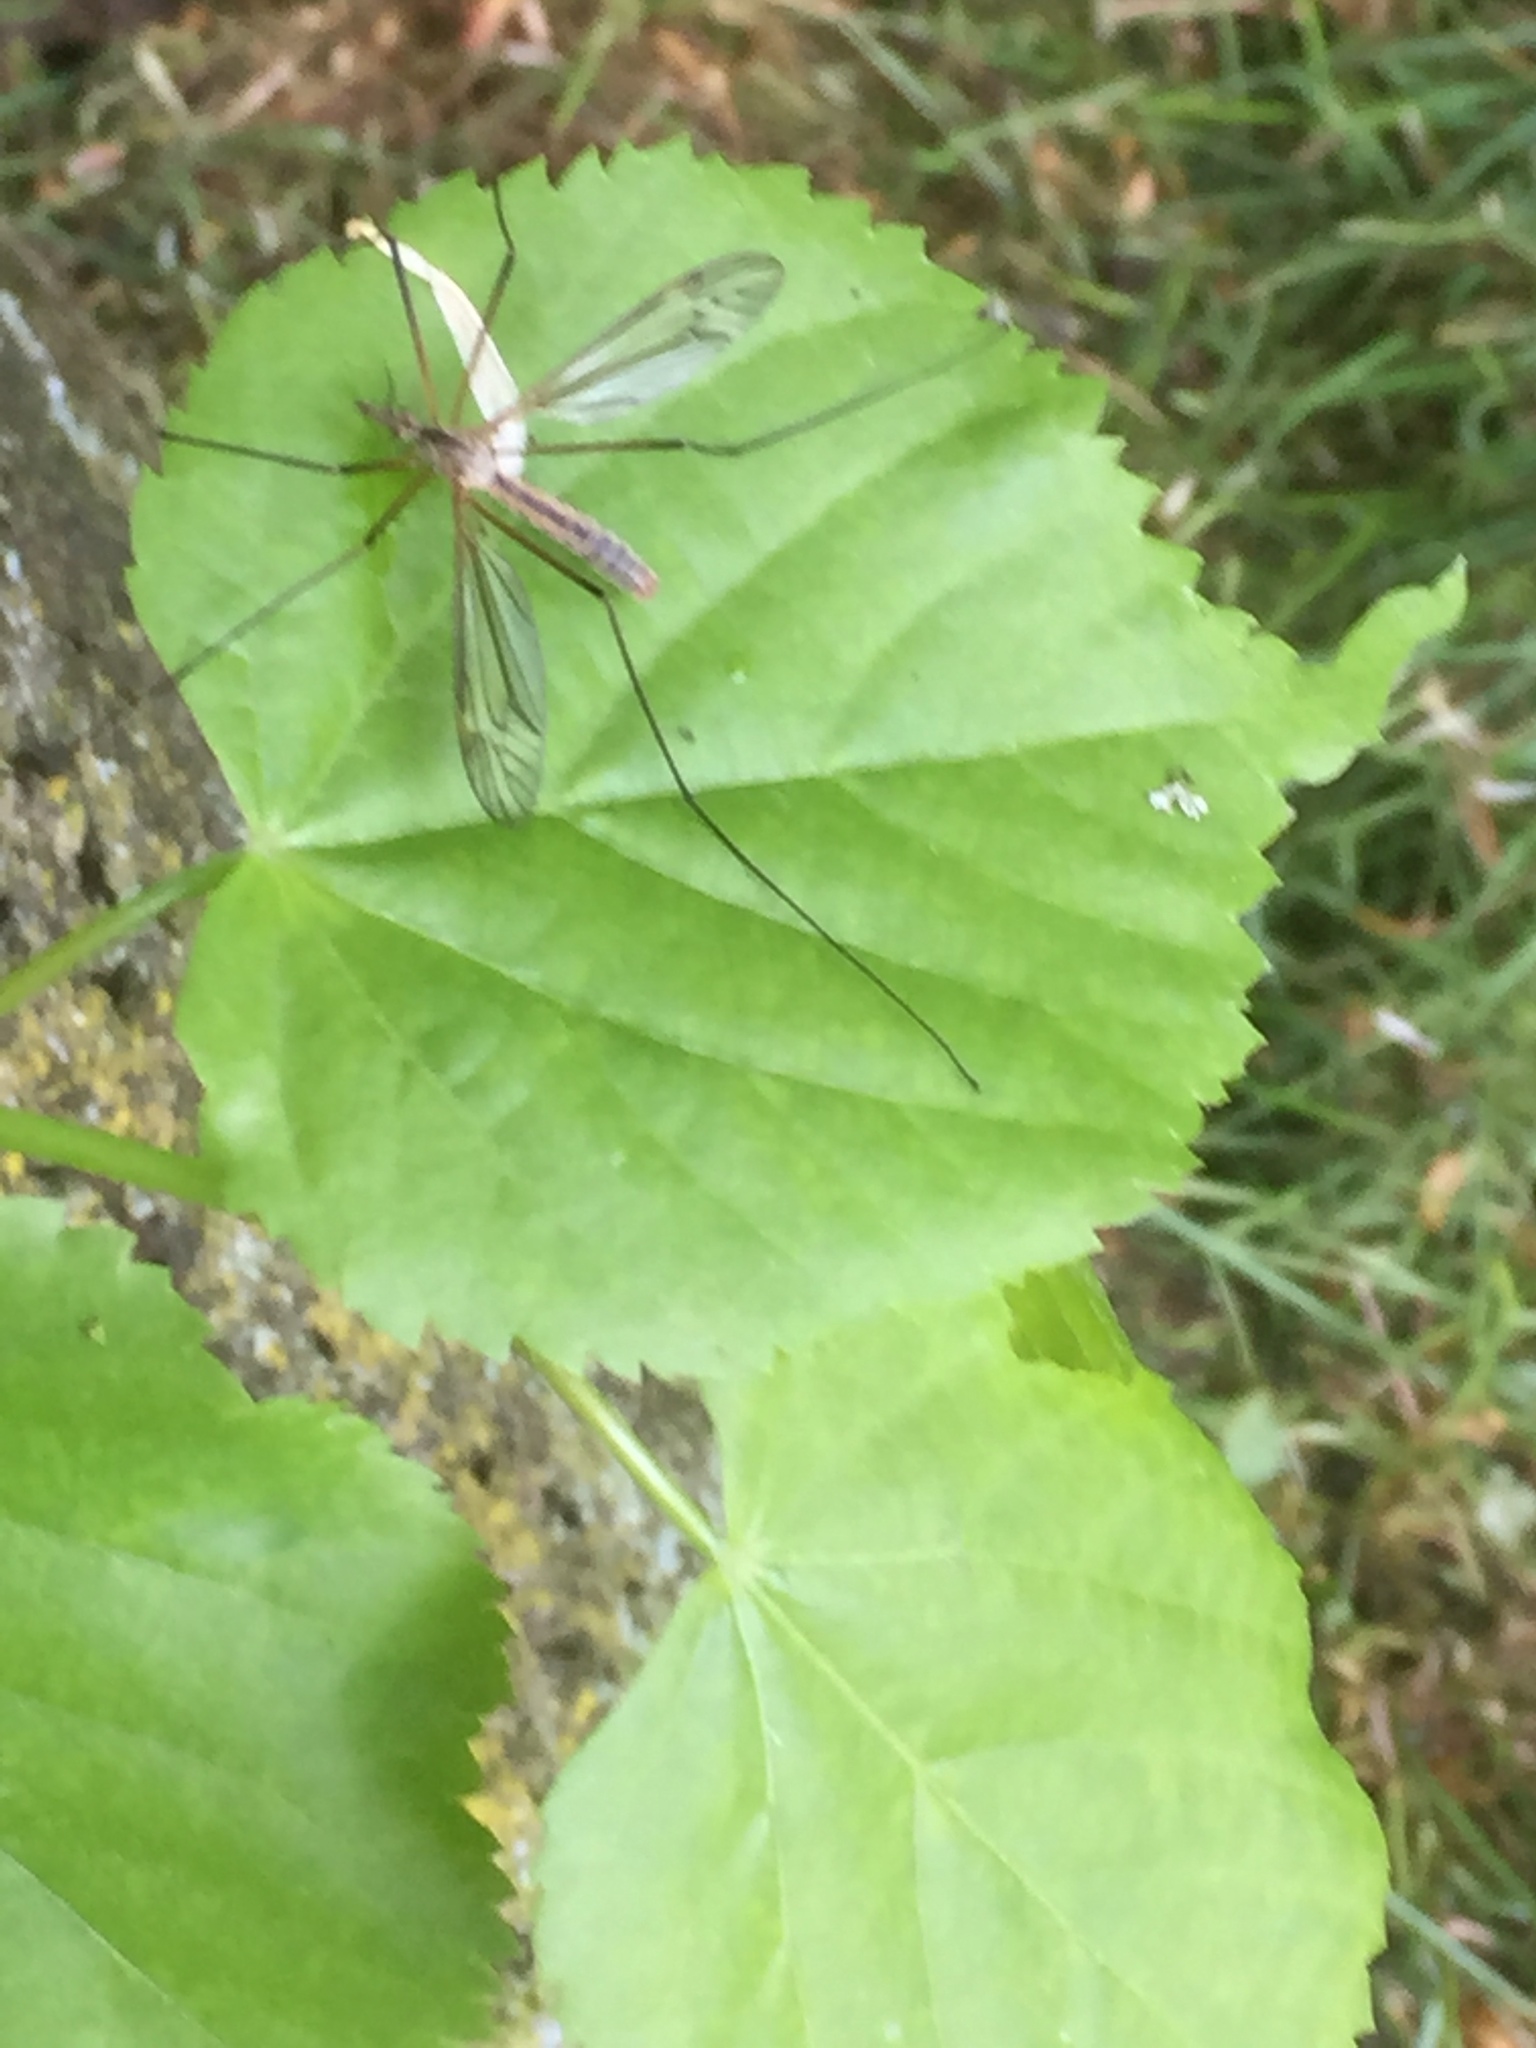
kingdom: Plantae
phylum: Tracheophyta
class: Magnoliopsida
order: Malvales
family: Malvaceae
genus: Tilia
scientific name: Tilia cordata
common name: Small-leaved lime
